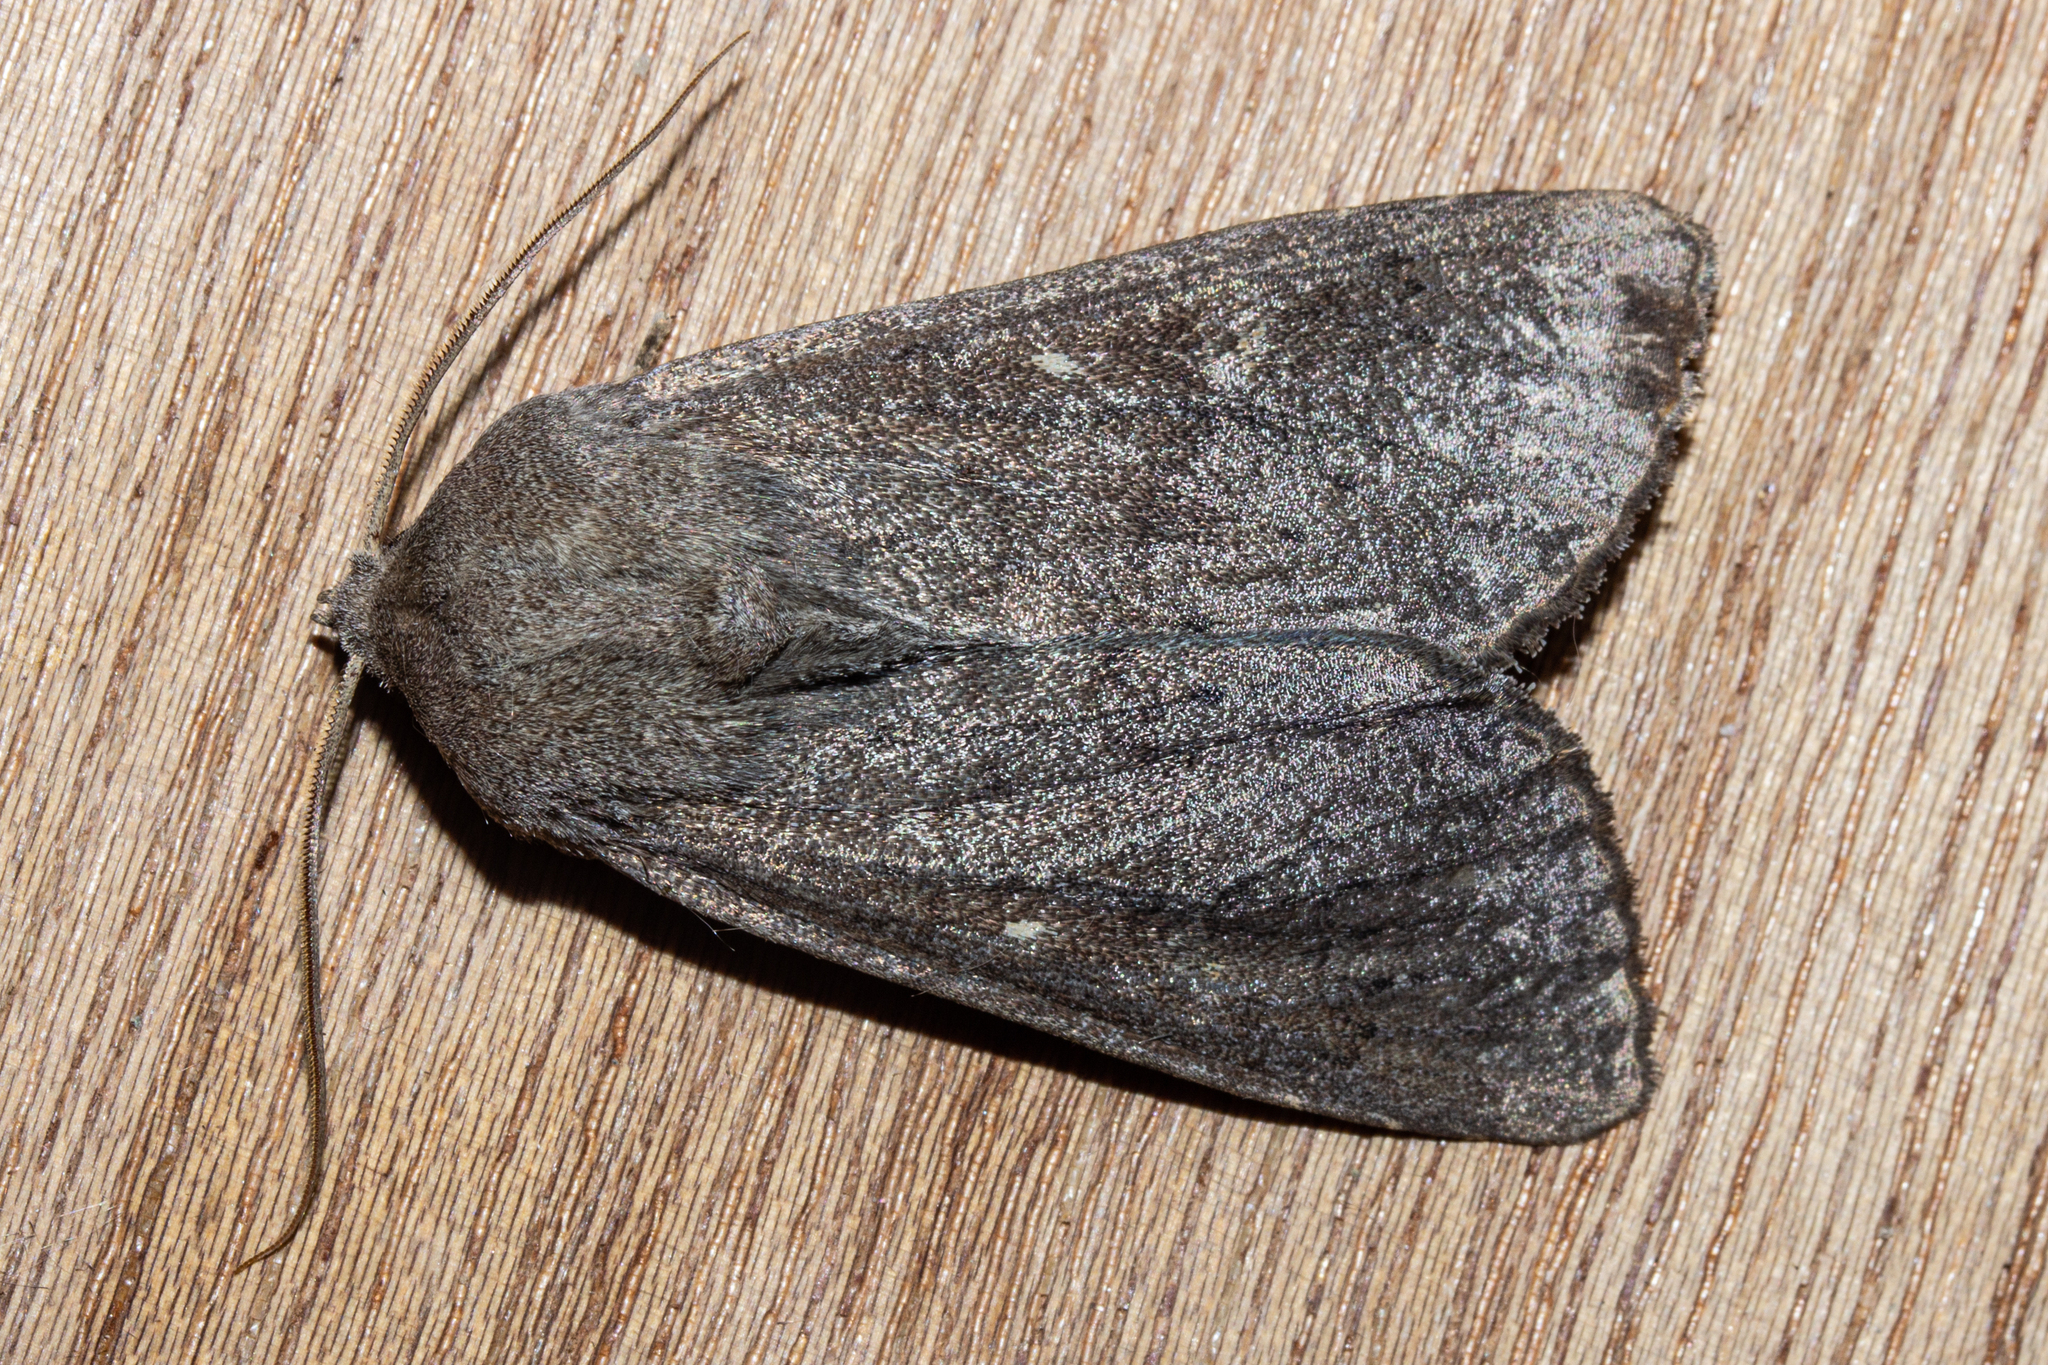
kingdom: Animalia
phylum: Arthropoda
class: Insecta
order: Lepidoptera
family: Noctuidae
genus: Ichneutica
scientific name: Ichneutica nullifera
